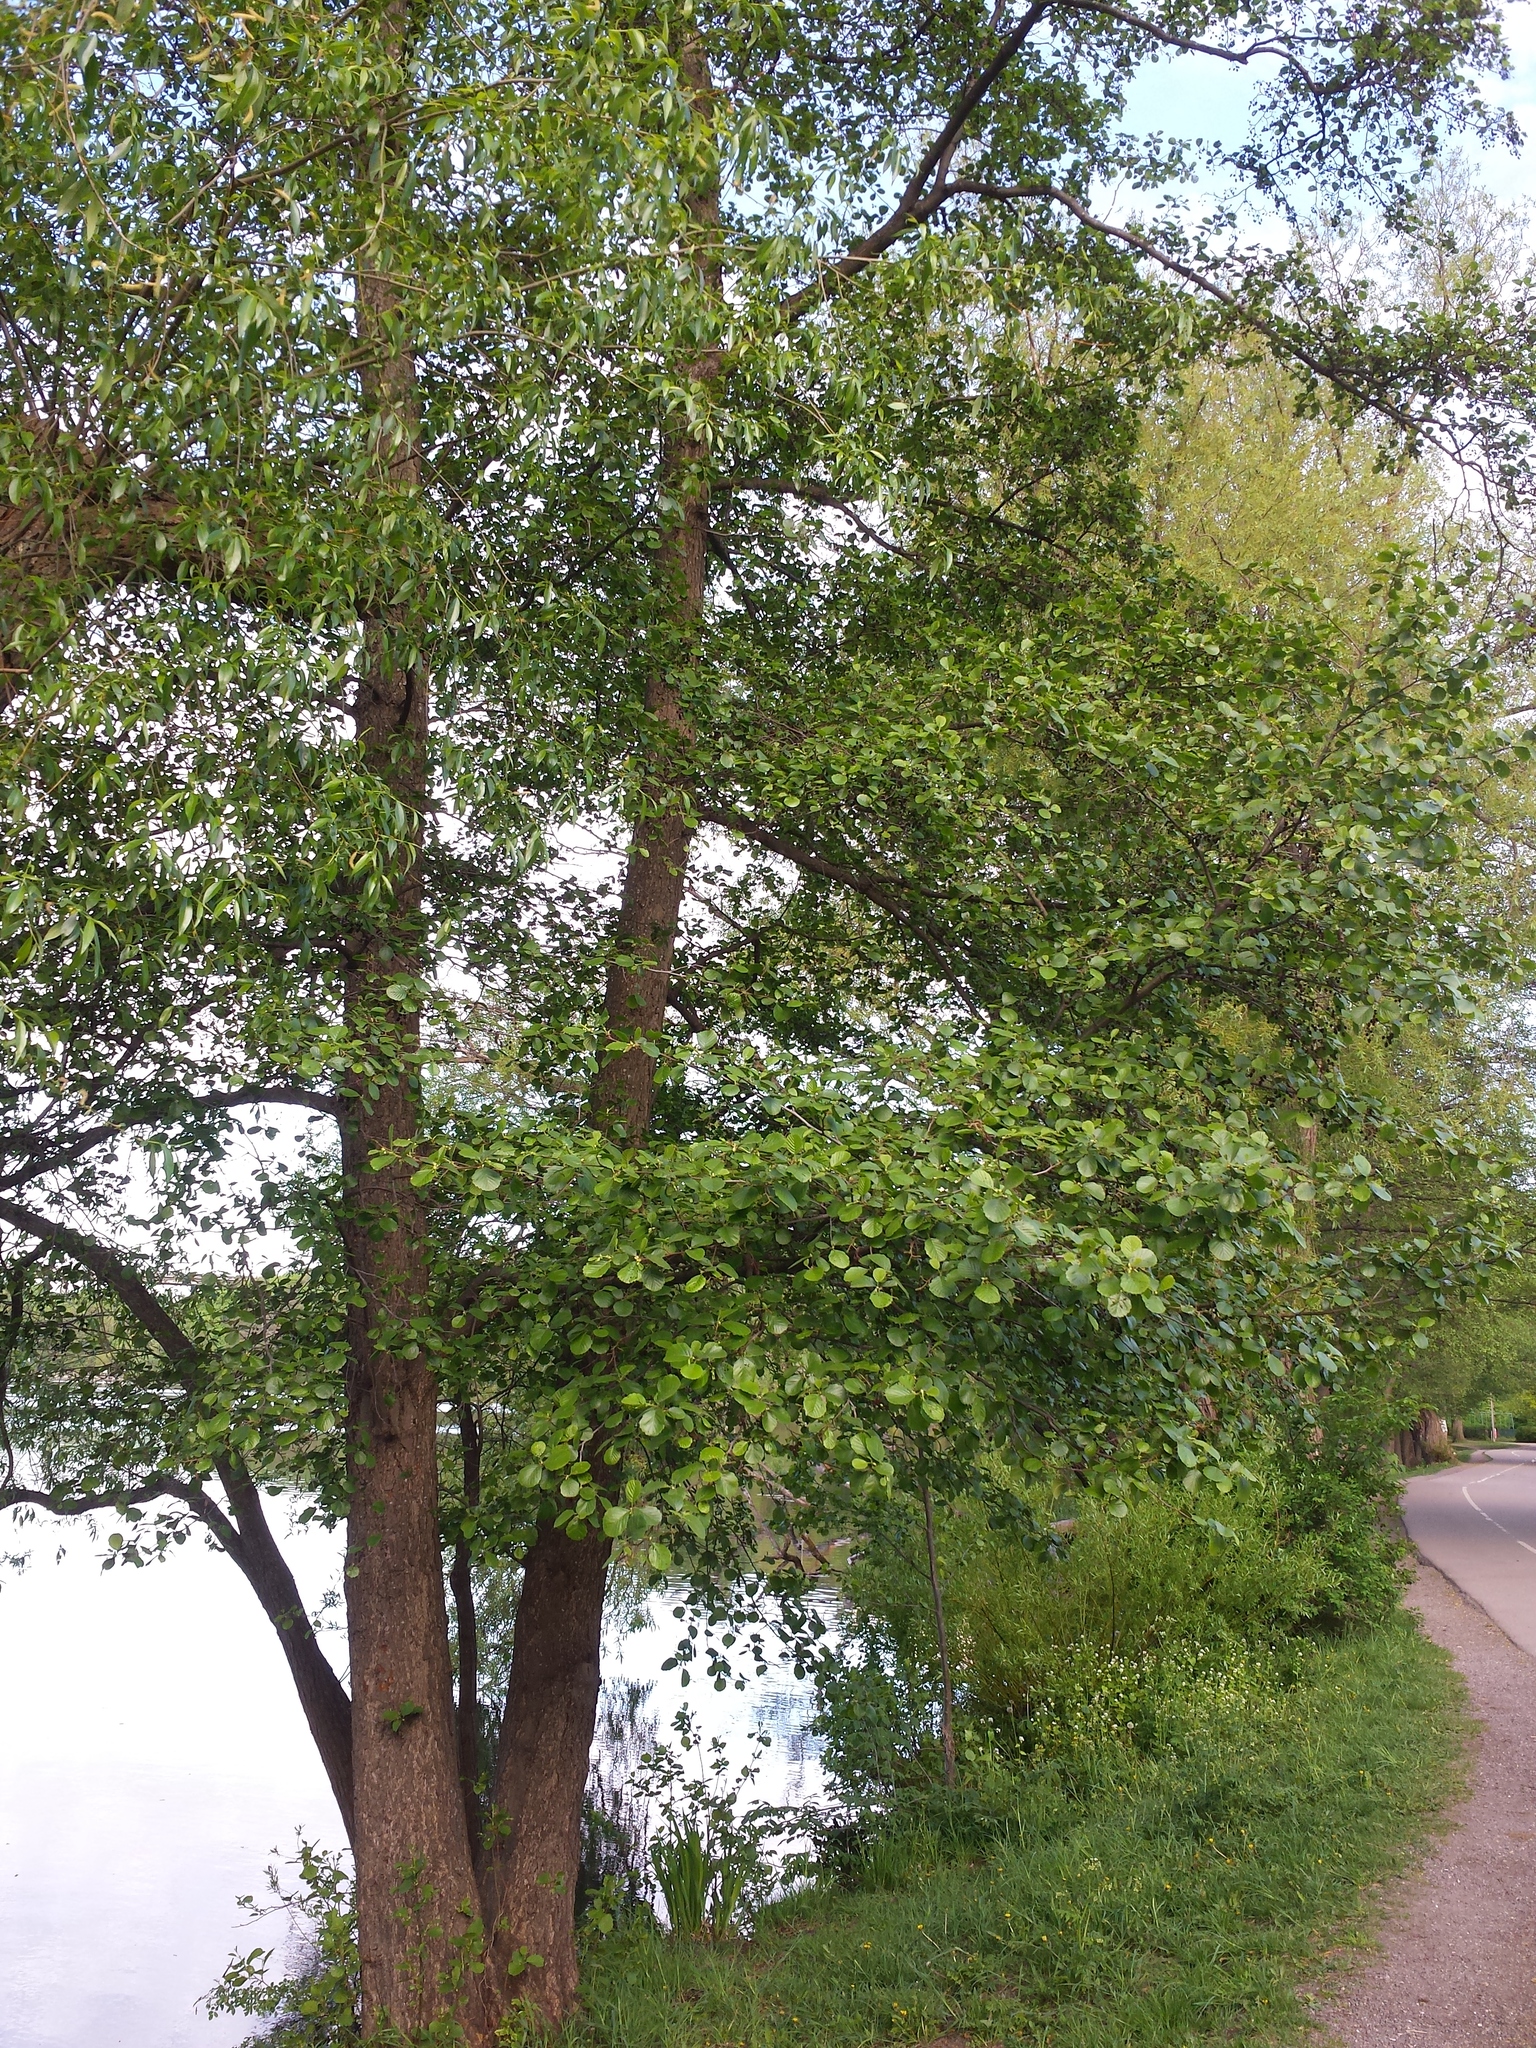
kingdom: Plantae
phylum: Tracheophyta
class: Magnoliopsida
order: Fagales
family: Betulaceae
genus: Alnus
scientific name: Alnus glutinosa
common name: Black alder
